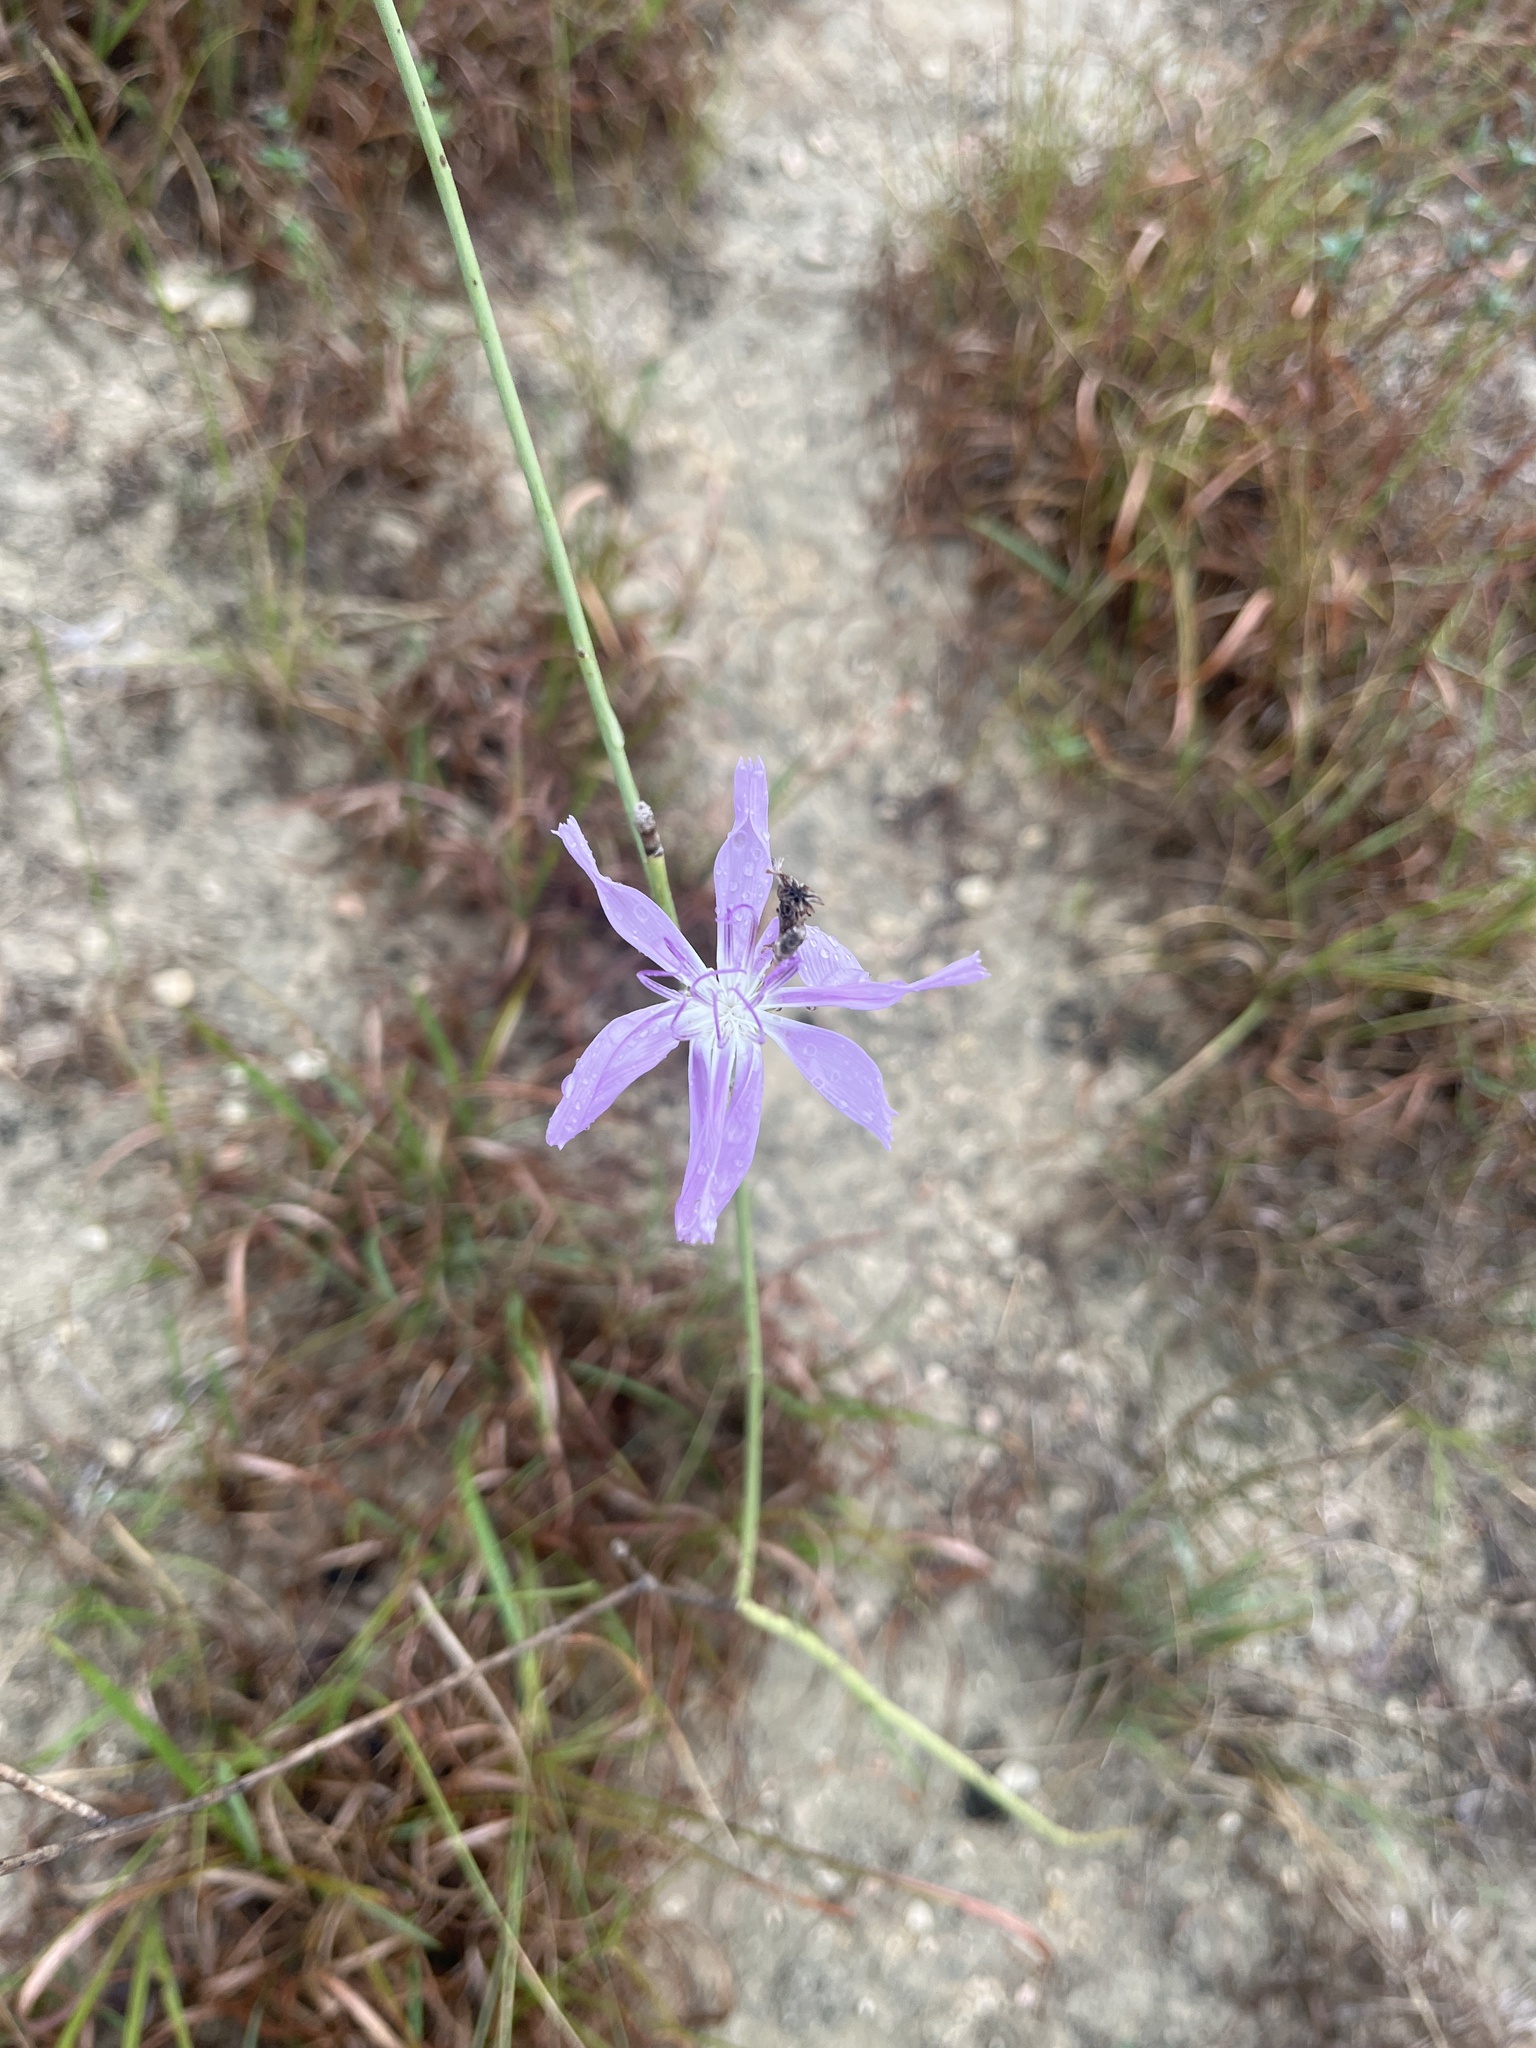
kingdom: Plantae
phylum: Tracheophyta
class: Magnoliopsida
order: Asterales
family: Asteraceae
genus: Lygodesmia
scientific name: Lygodesmia texana
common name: Texas skeleton-plant
